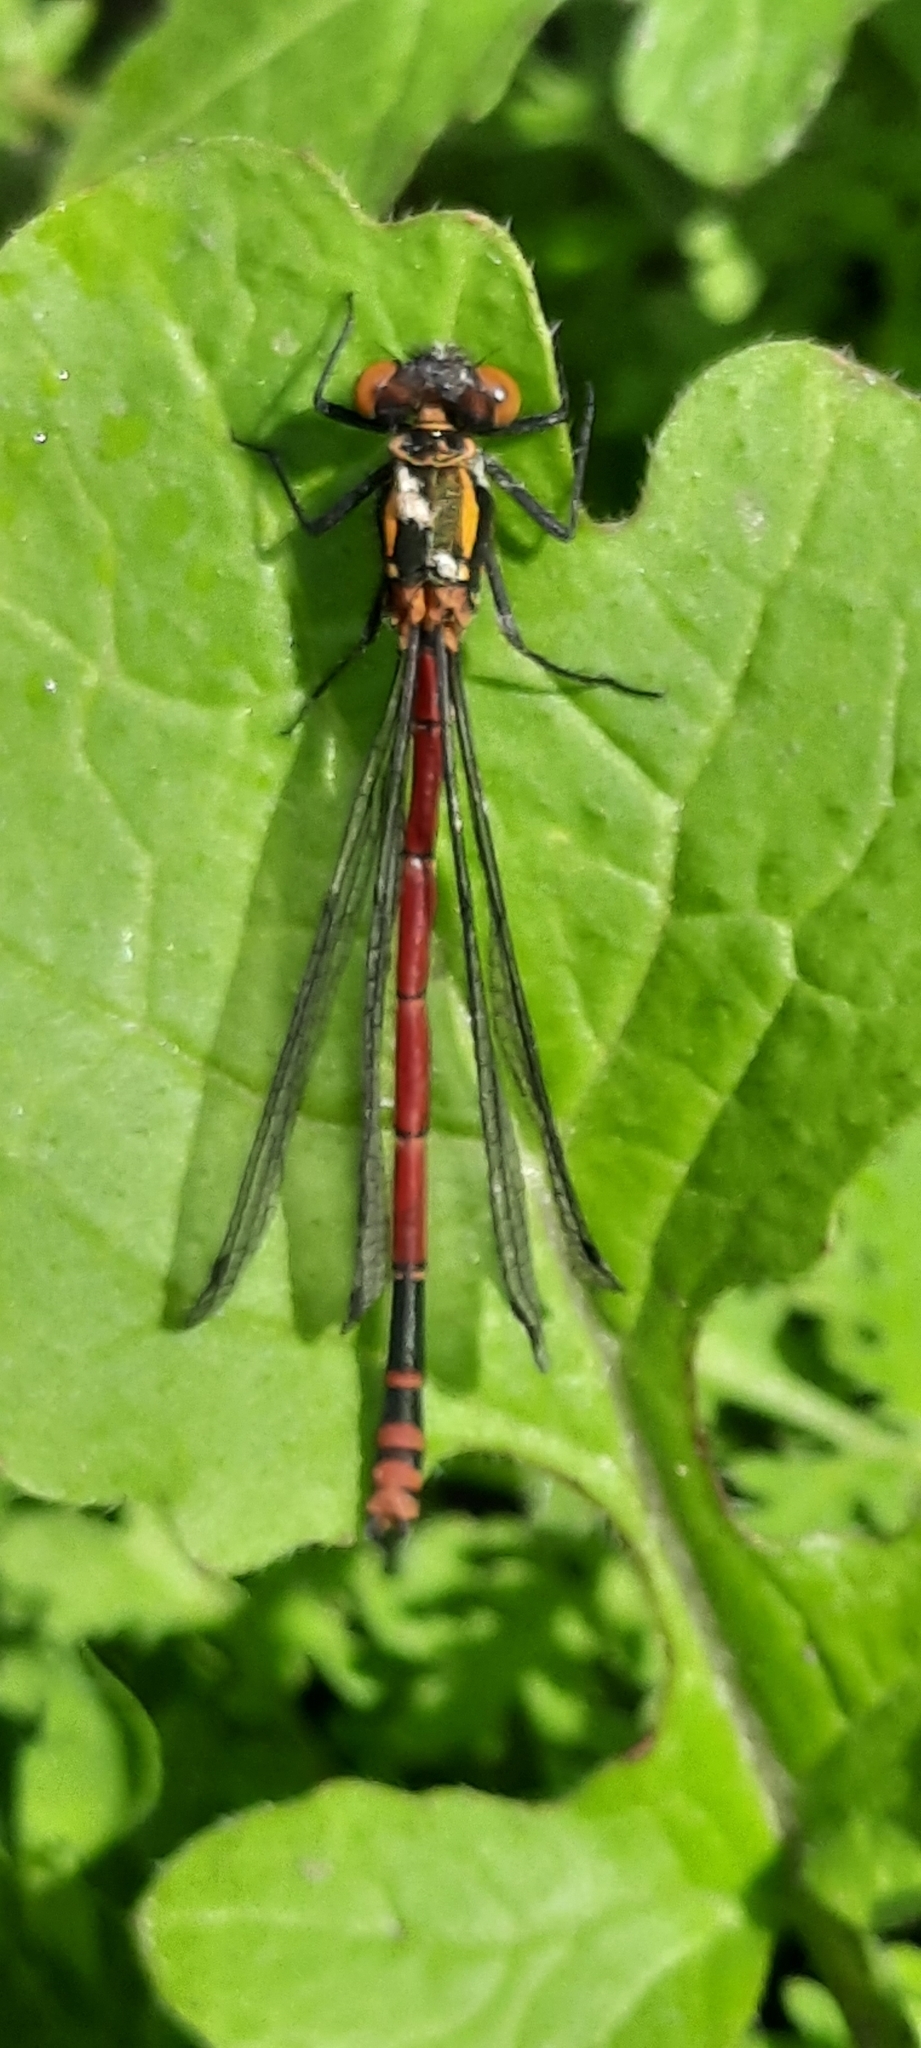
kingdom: Animalia
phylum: Arthropoda
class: Insecta
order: Odonata
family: Coenagrionidae
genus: Pyrrhosoma
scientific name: Pyrrhosoma nymphula
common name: Large red damsel
